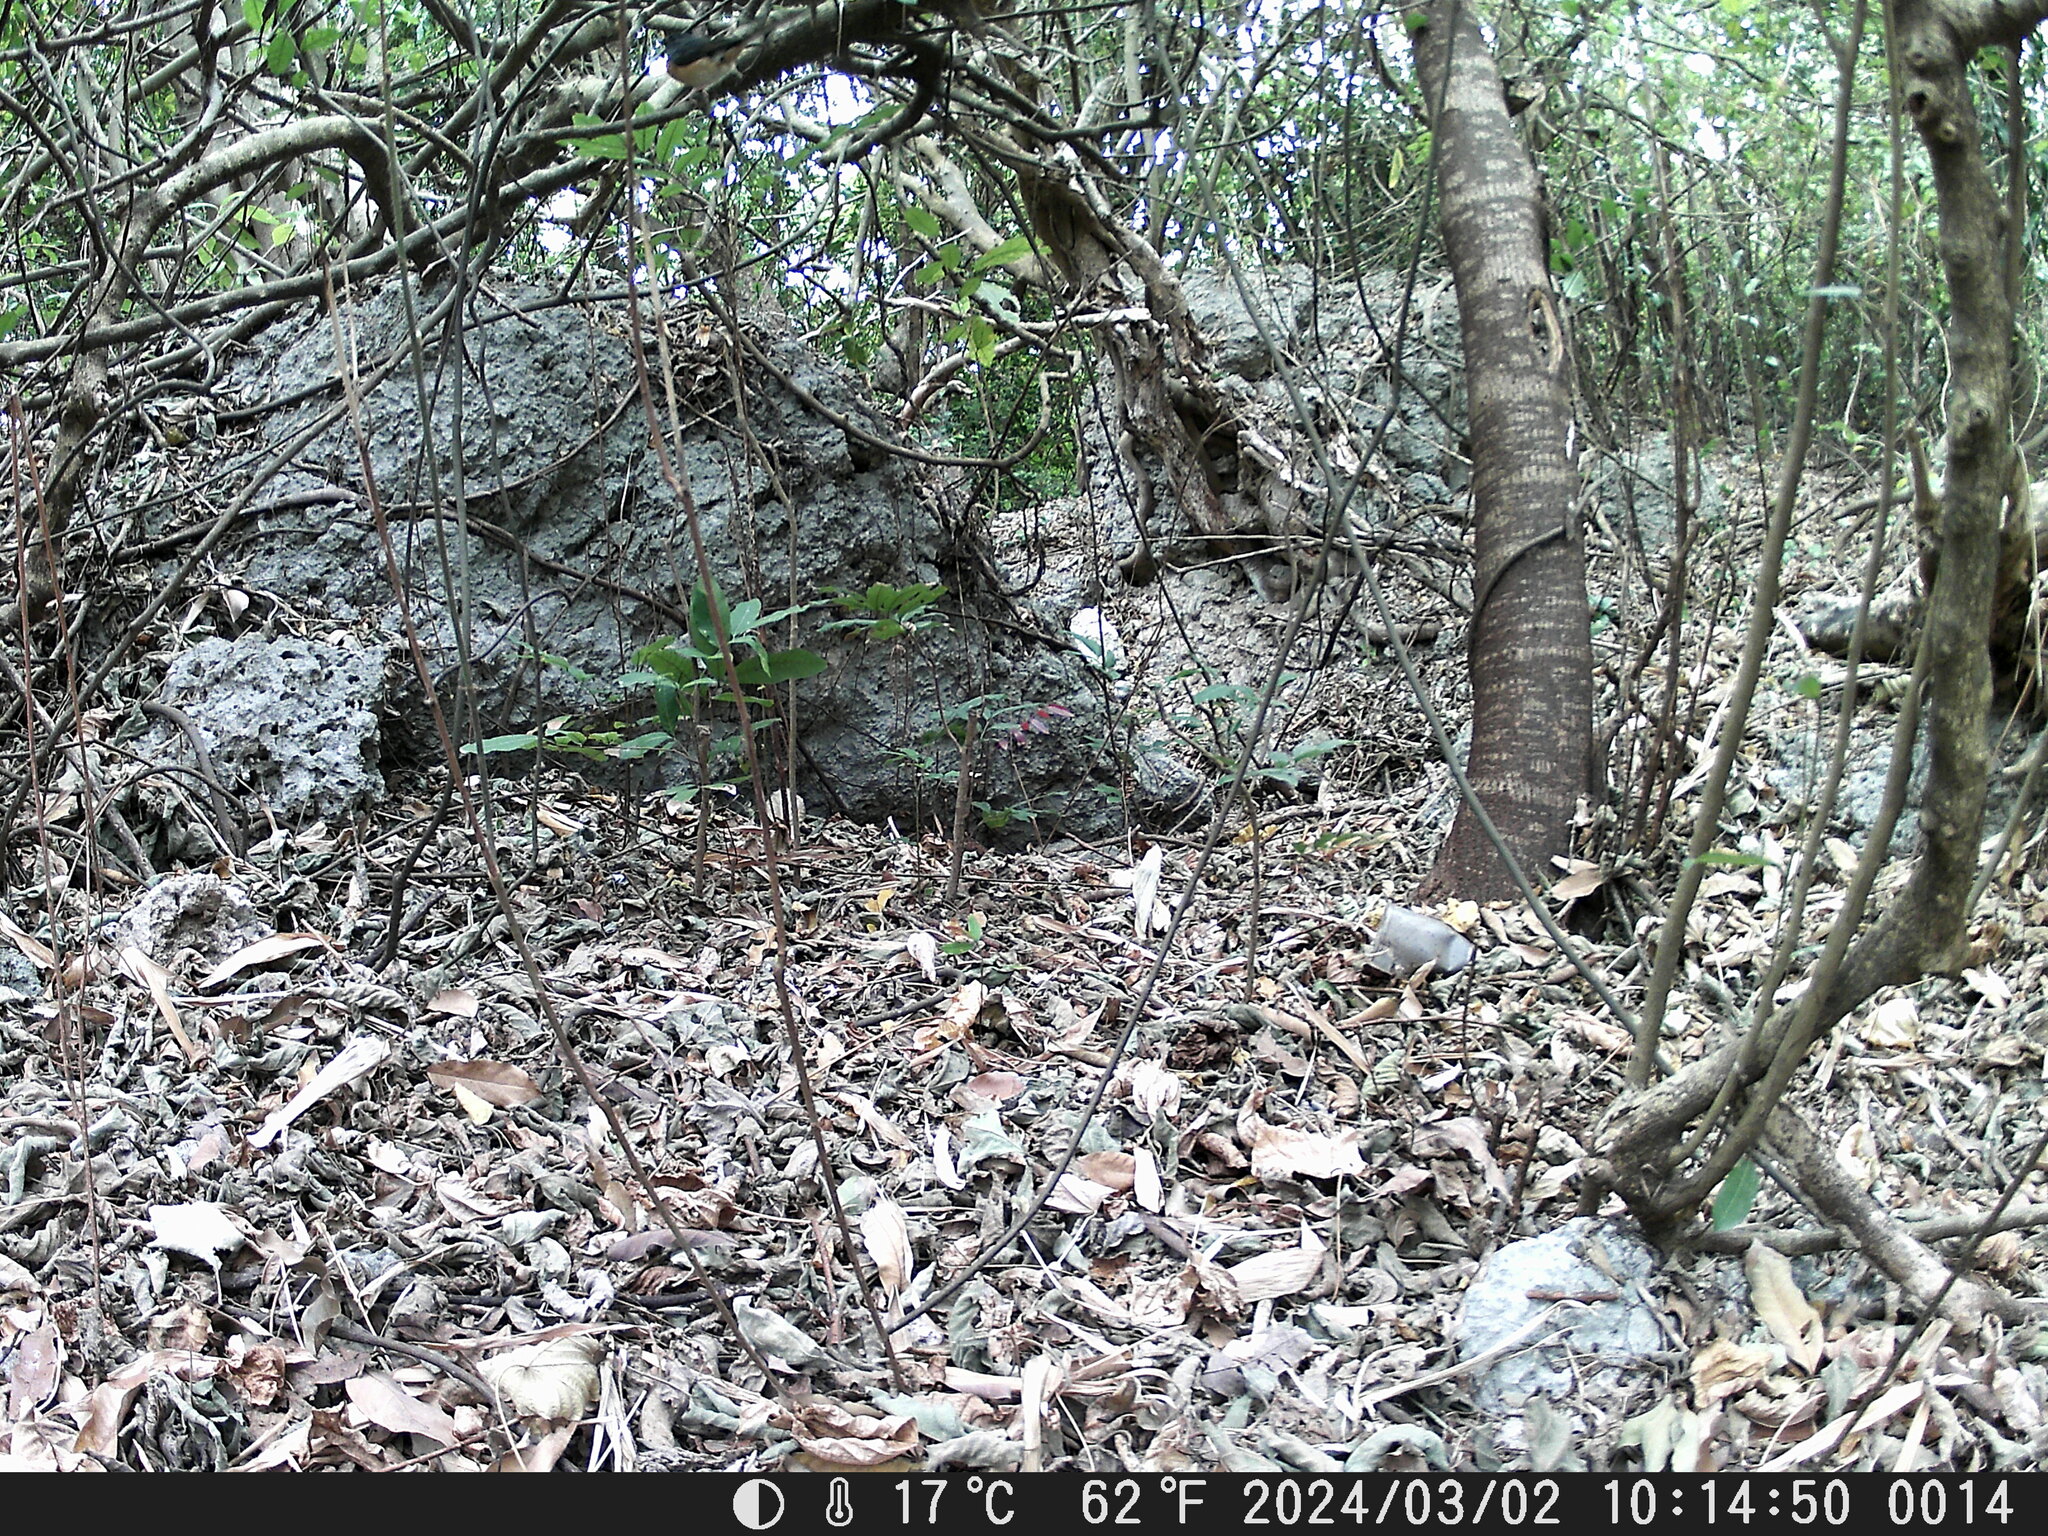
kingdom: Animalia
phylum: Chordata
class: Aves
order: Passeriformes
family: Muscicapidae
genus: Copsychus
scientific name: Copsychus malabaricus
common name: White-rumped shama
